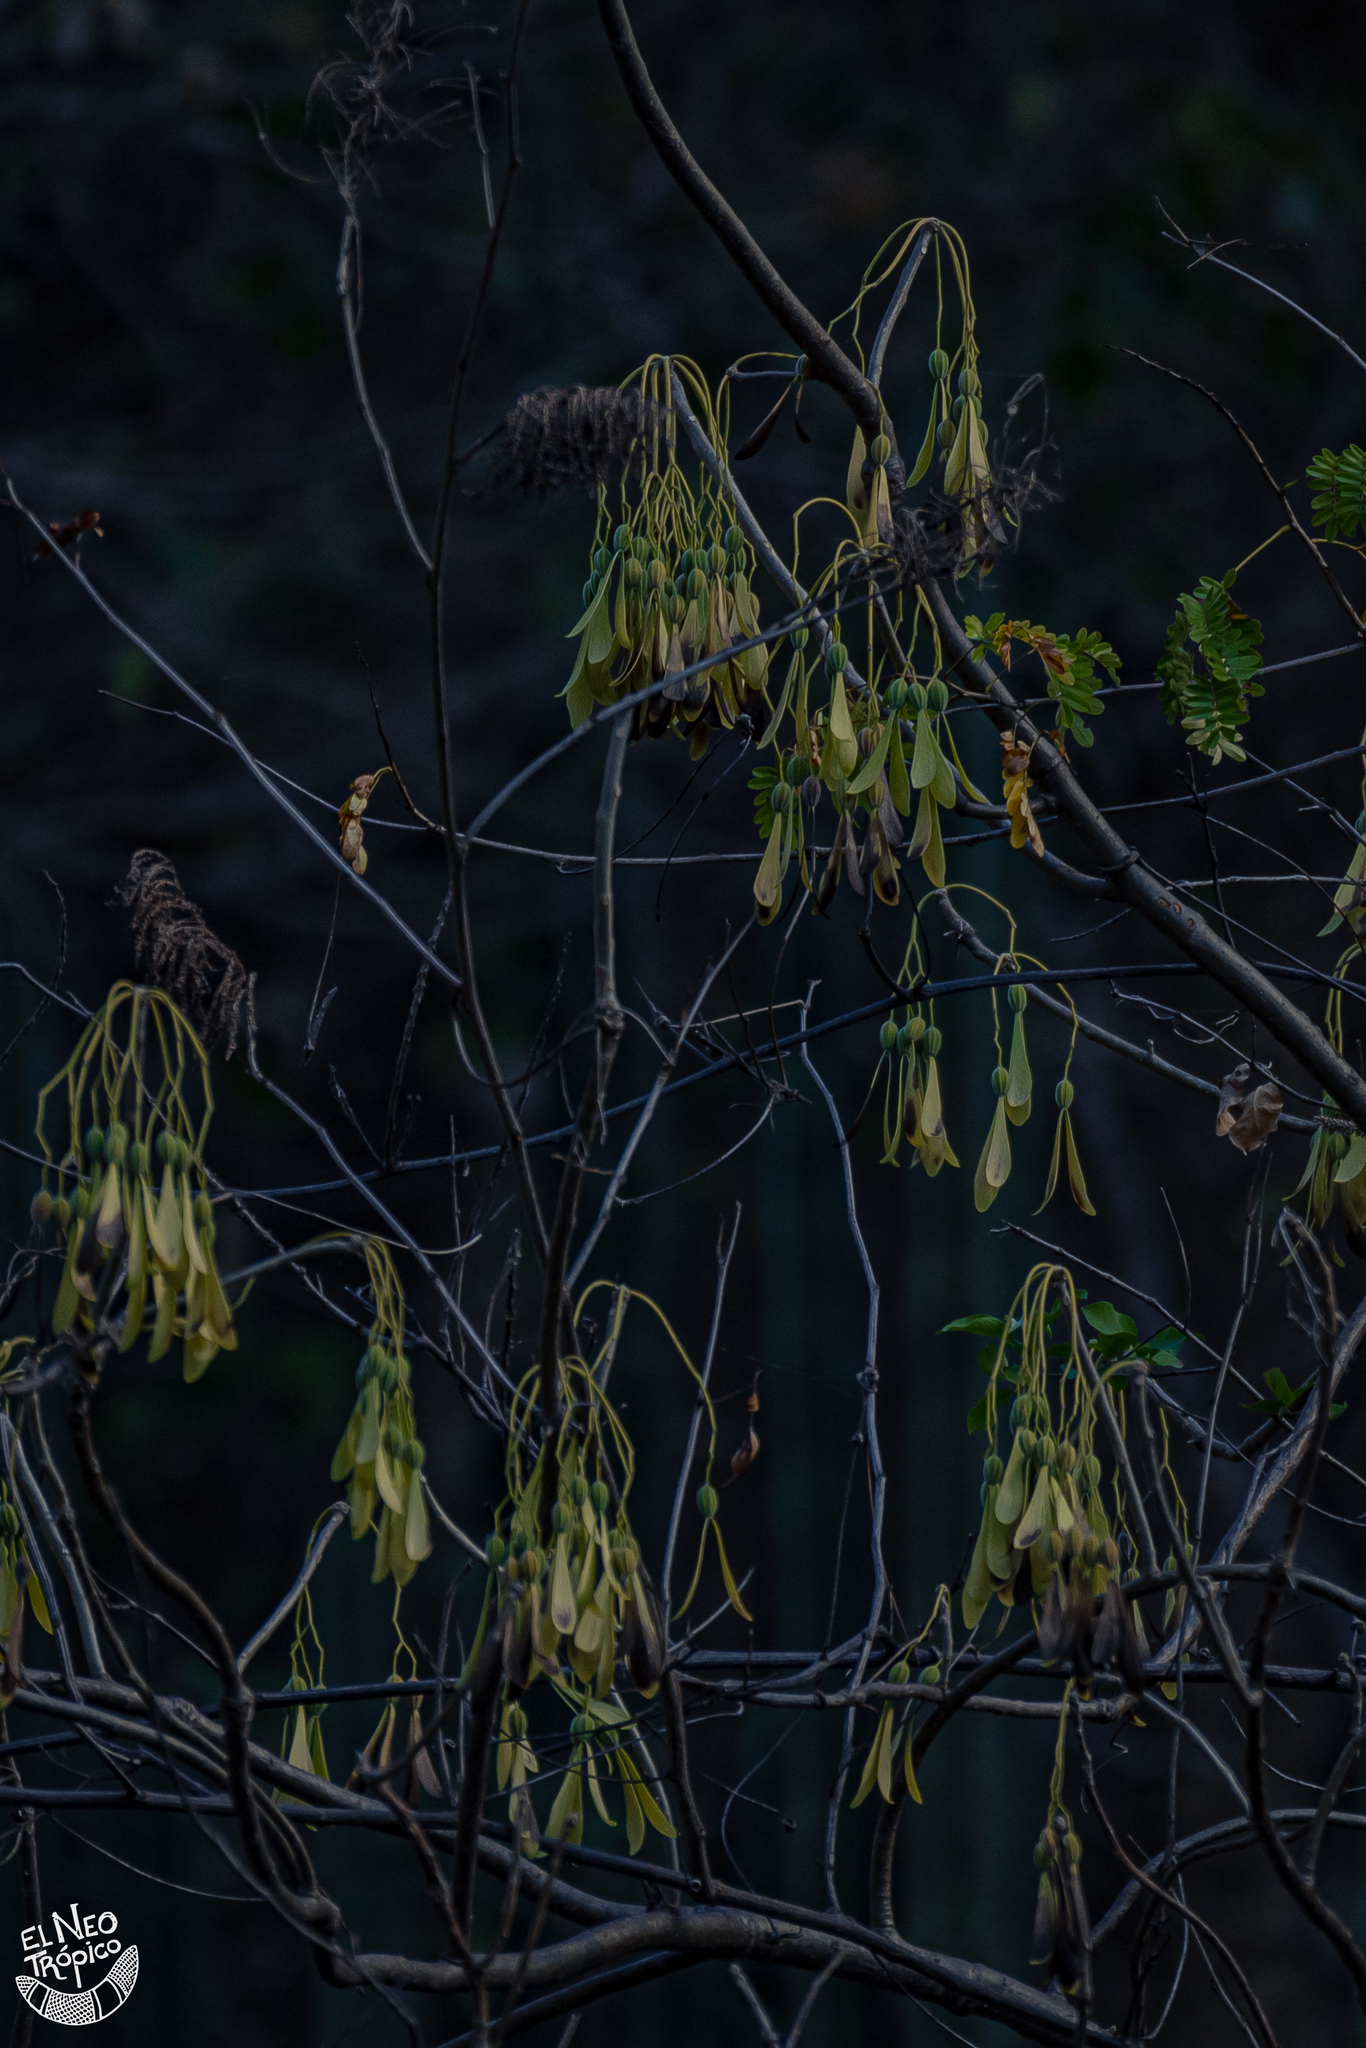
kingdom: Plantae
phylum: Tracheophyta
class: Magnoliopsida
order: Laurales
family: Hernandiaceae
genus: Gyrocarpus
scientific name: Gyrocarpus mocinoi
